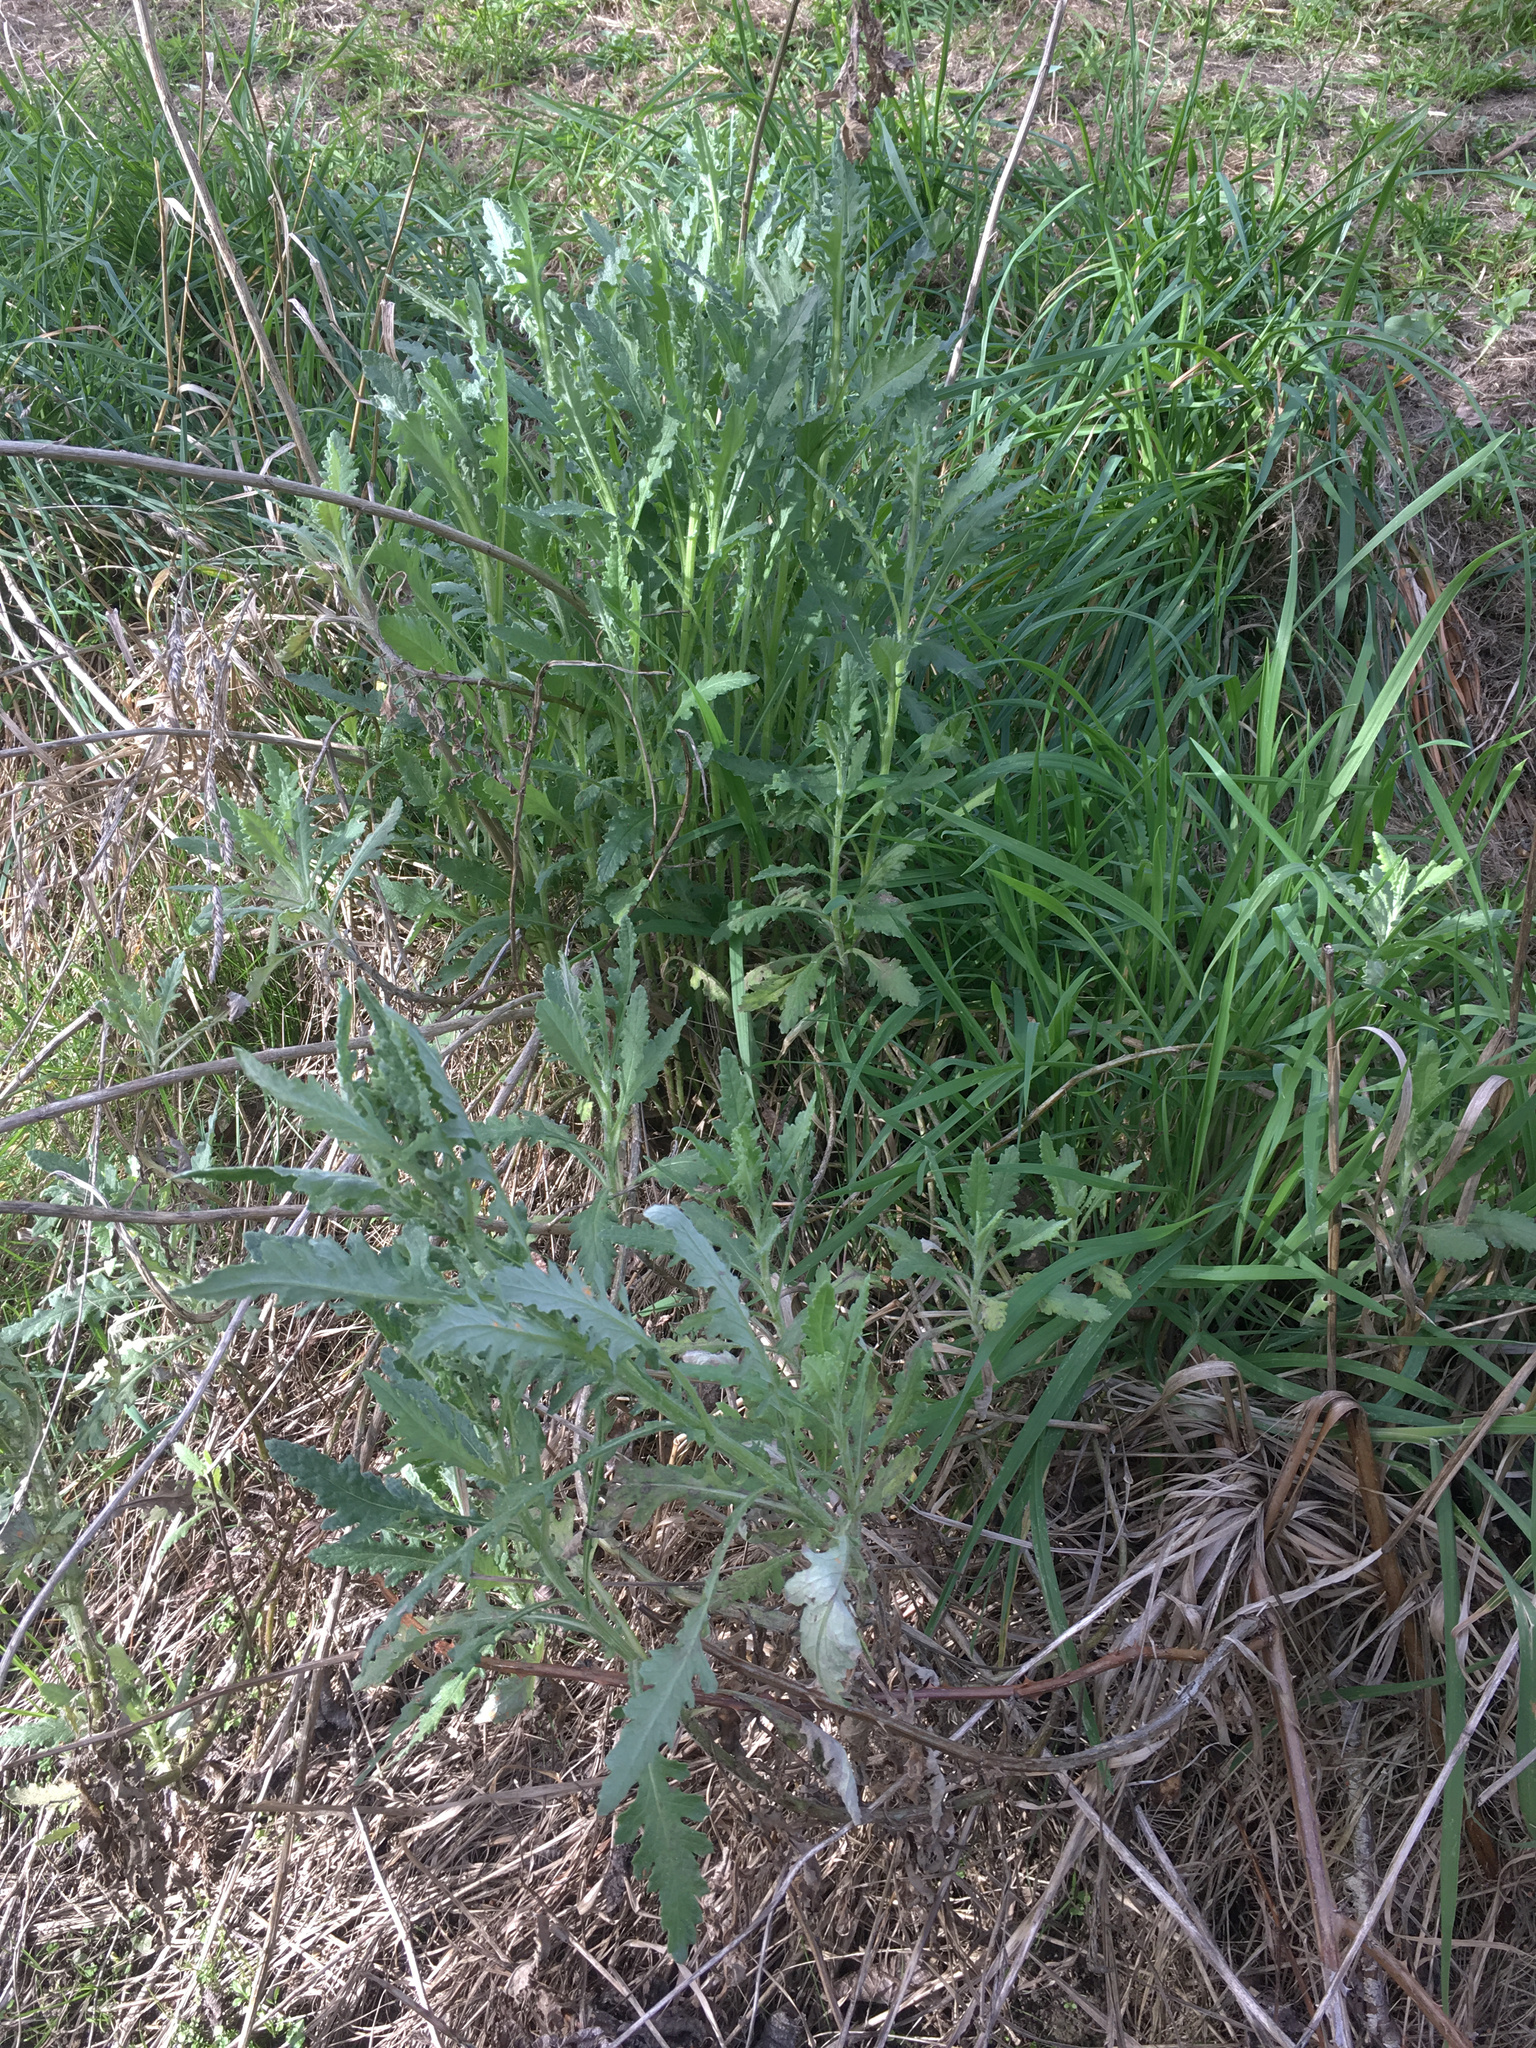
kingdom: Plantae
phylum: Tracheophyta
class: Magnoliopsida
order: Asterales
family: Asteraceae
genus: Senecio
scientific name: Senecio glomeratus
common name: Cutleaf burnweed
